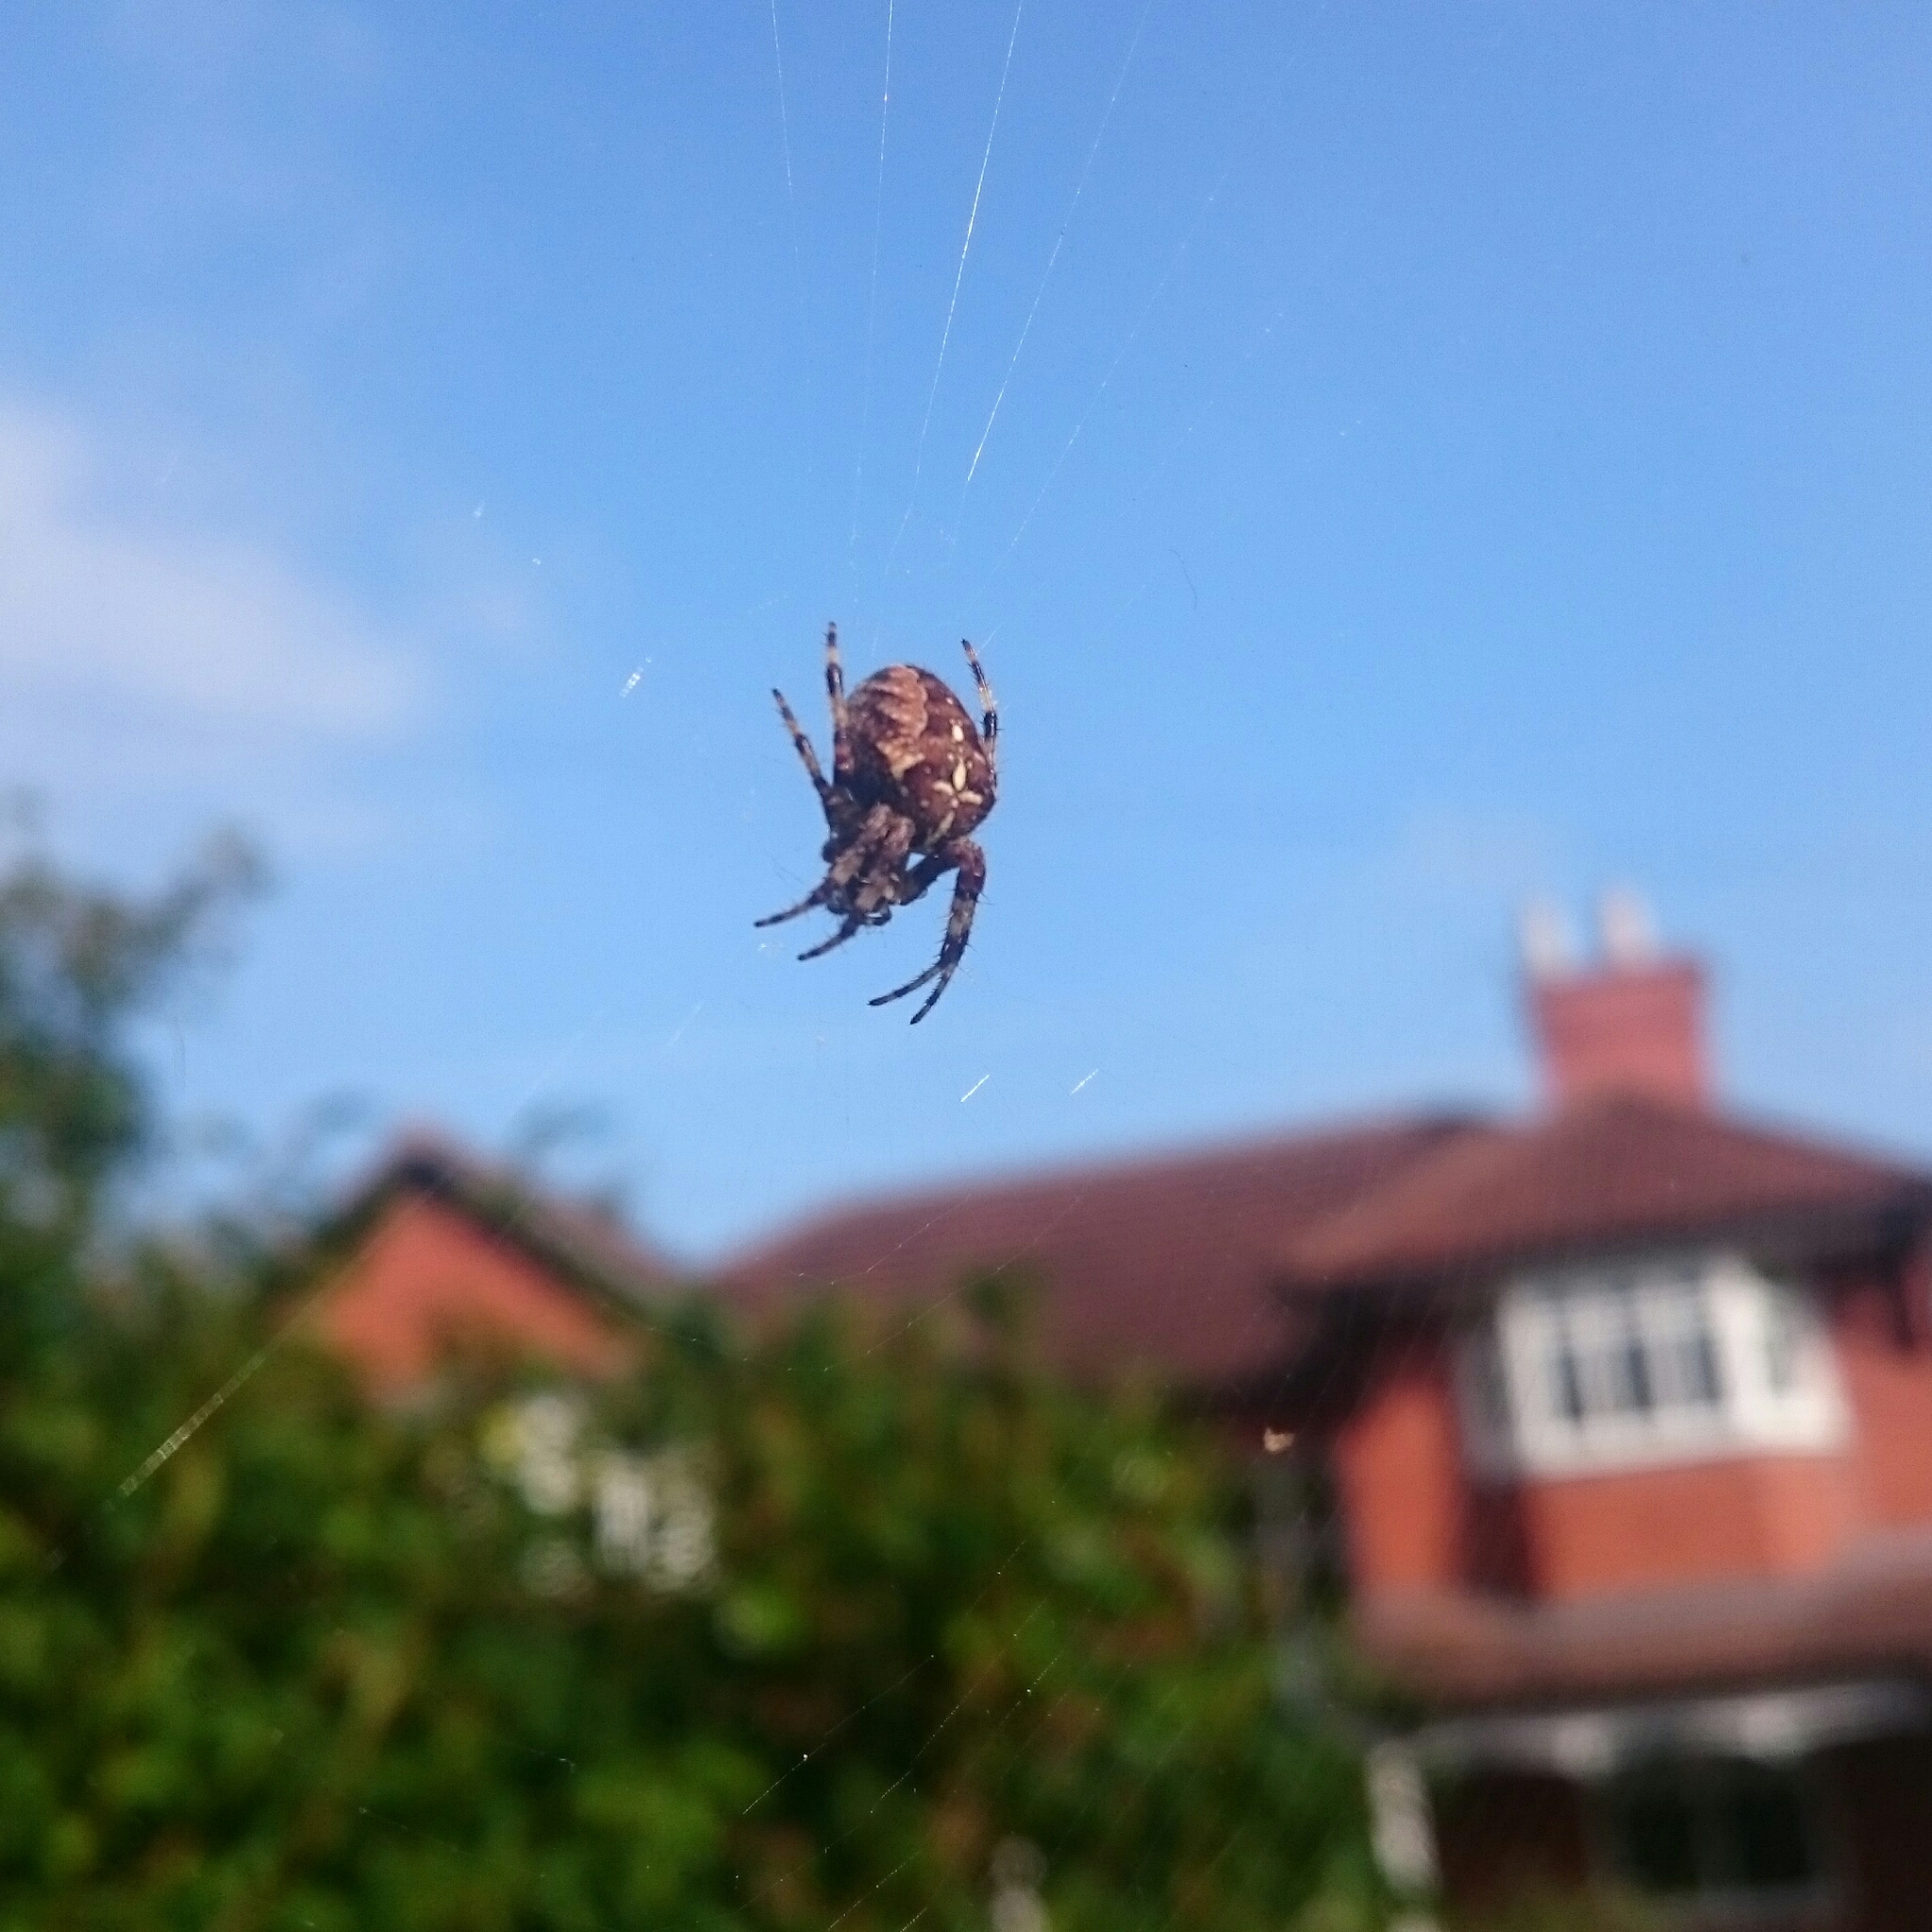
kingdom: Animalia
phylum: Arthropoda
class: Arachnida
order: Araneae
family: Araneidae
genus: Araneus
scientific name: Araneus diadematus
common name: Cross orbweaver
